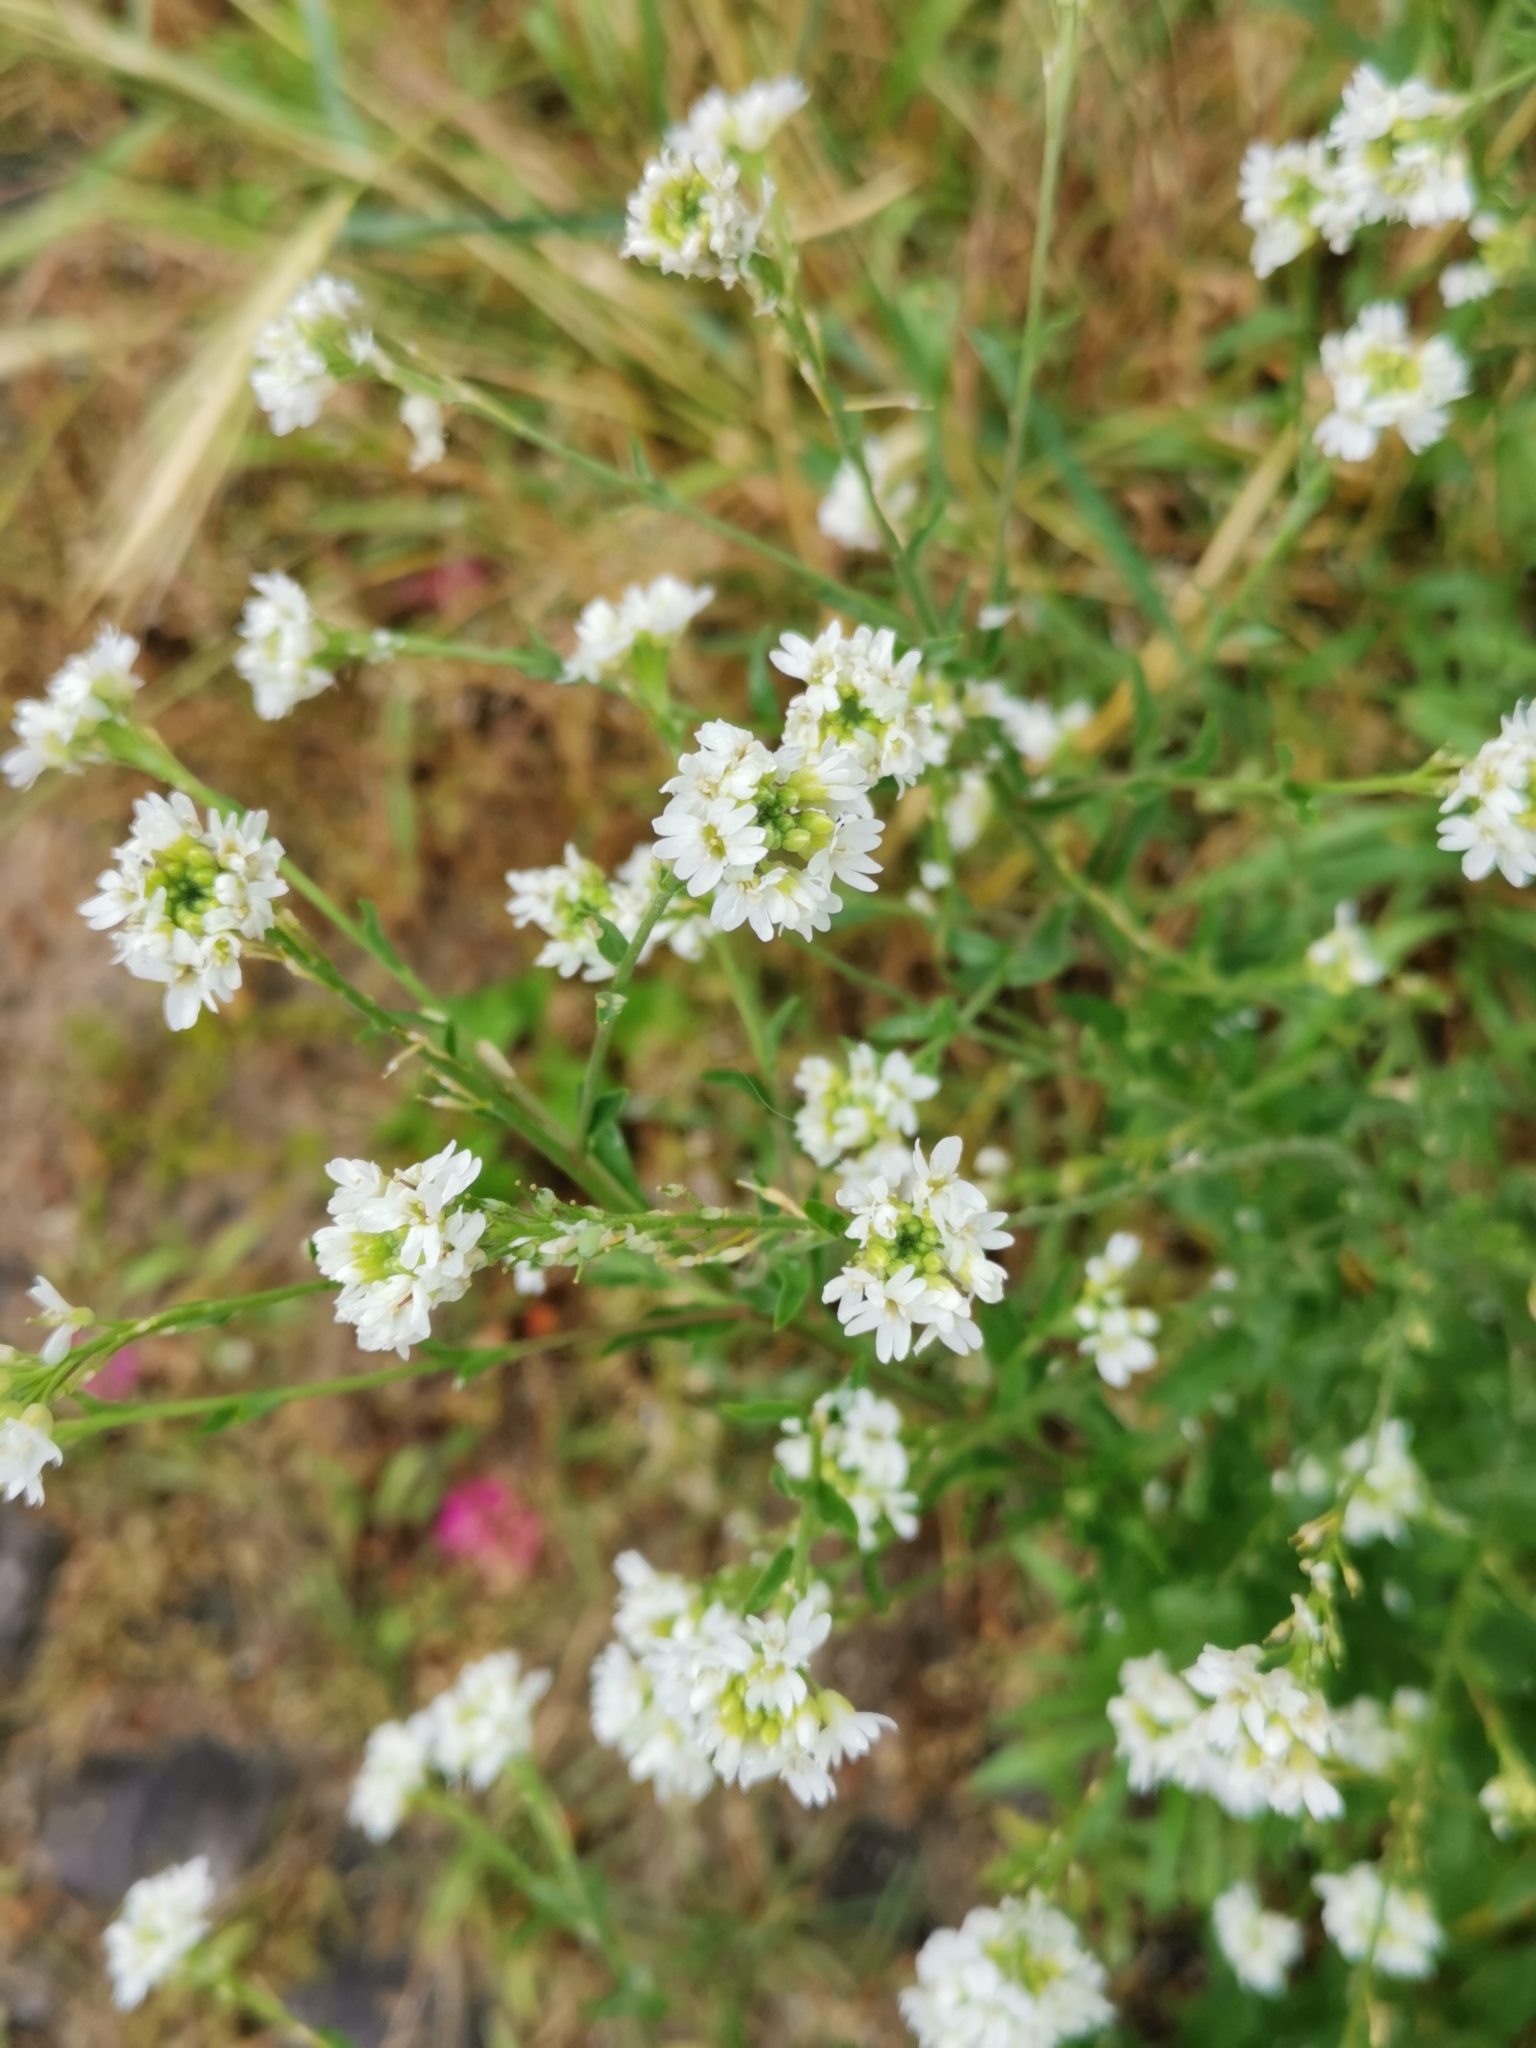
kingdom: Plantae
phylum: Tracheophyta
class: Magnoliopsida
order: Brassicales
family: Brassicaceae
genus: Berteroa
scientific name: Berteroa incana
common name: Hoary alison
